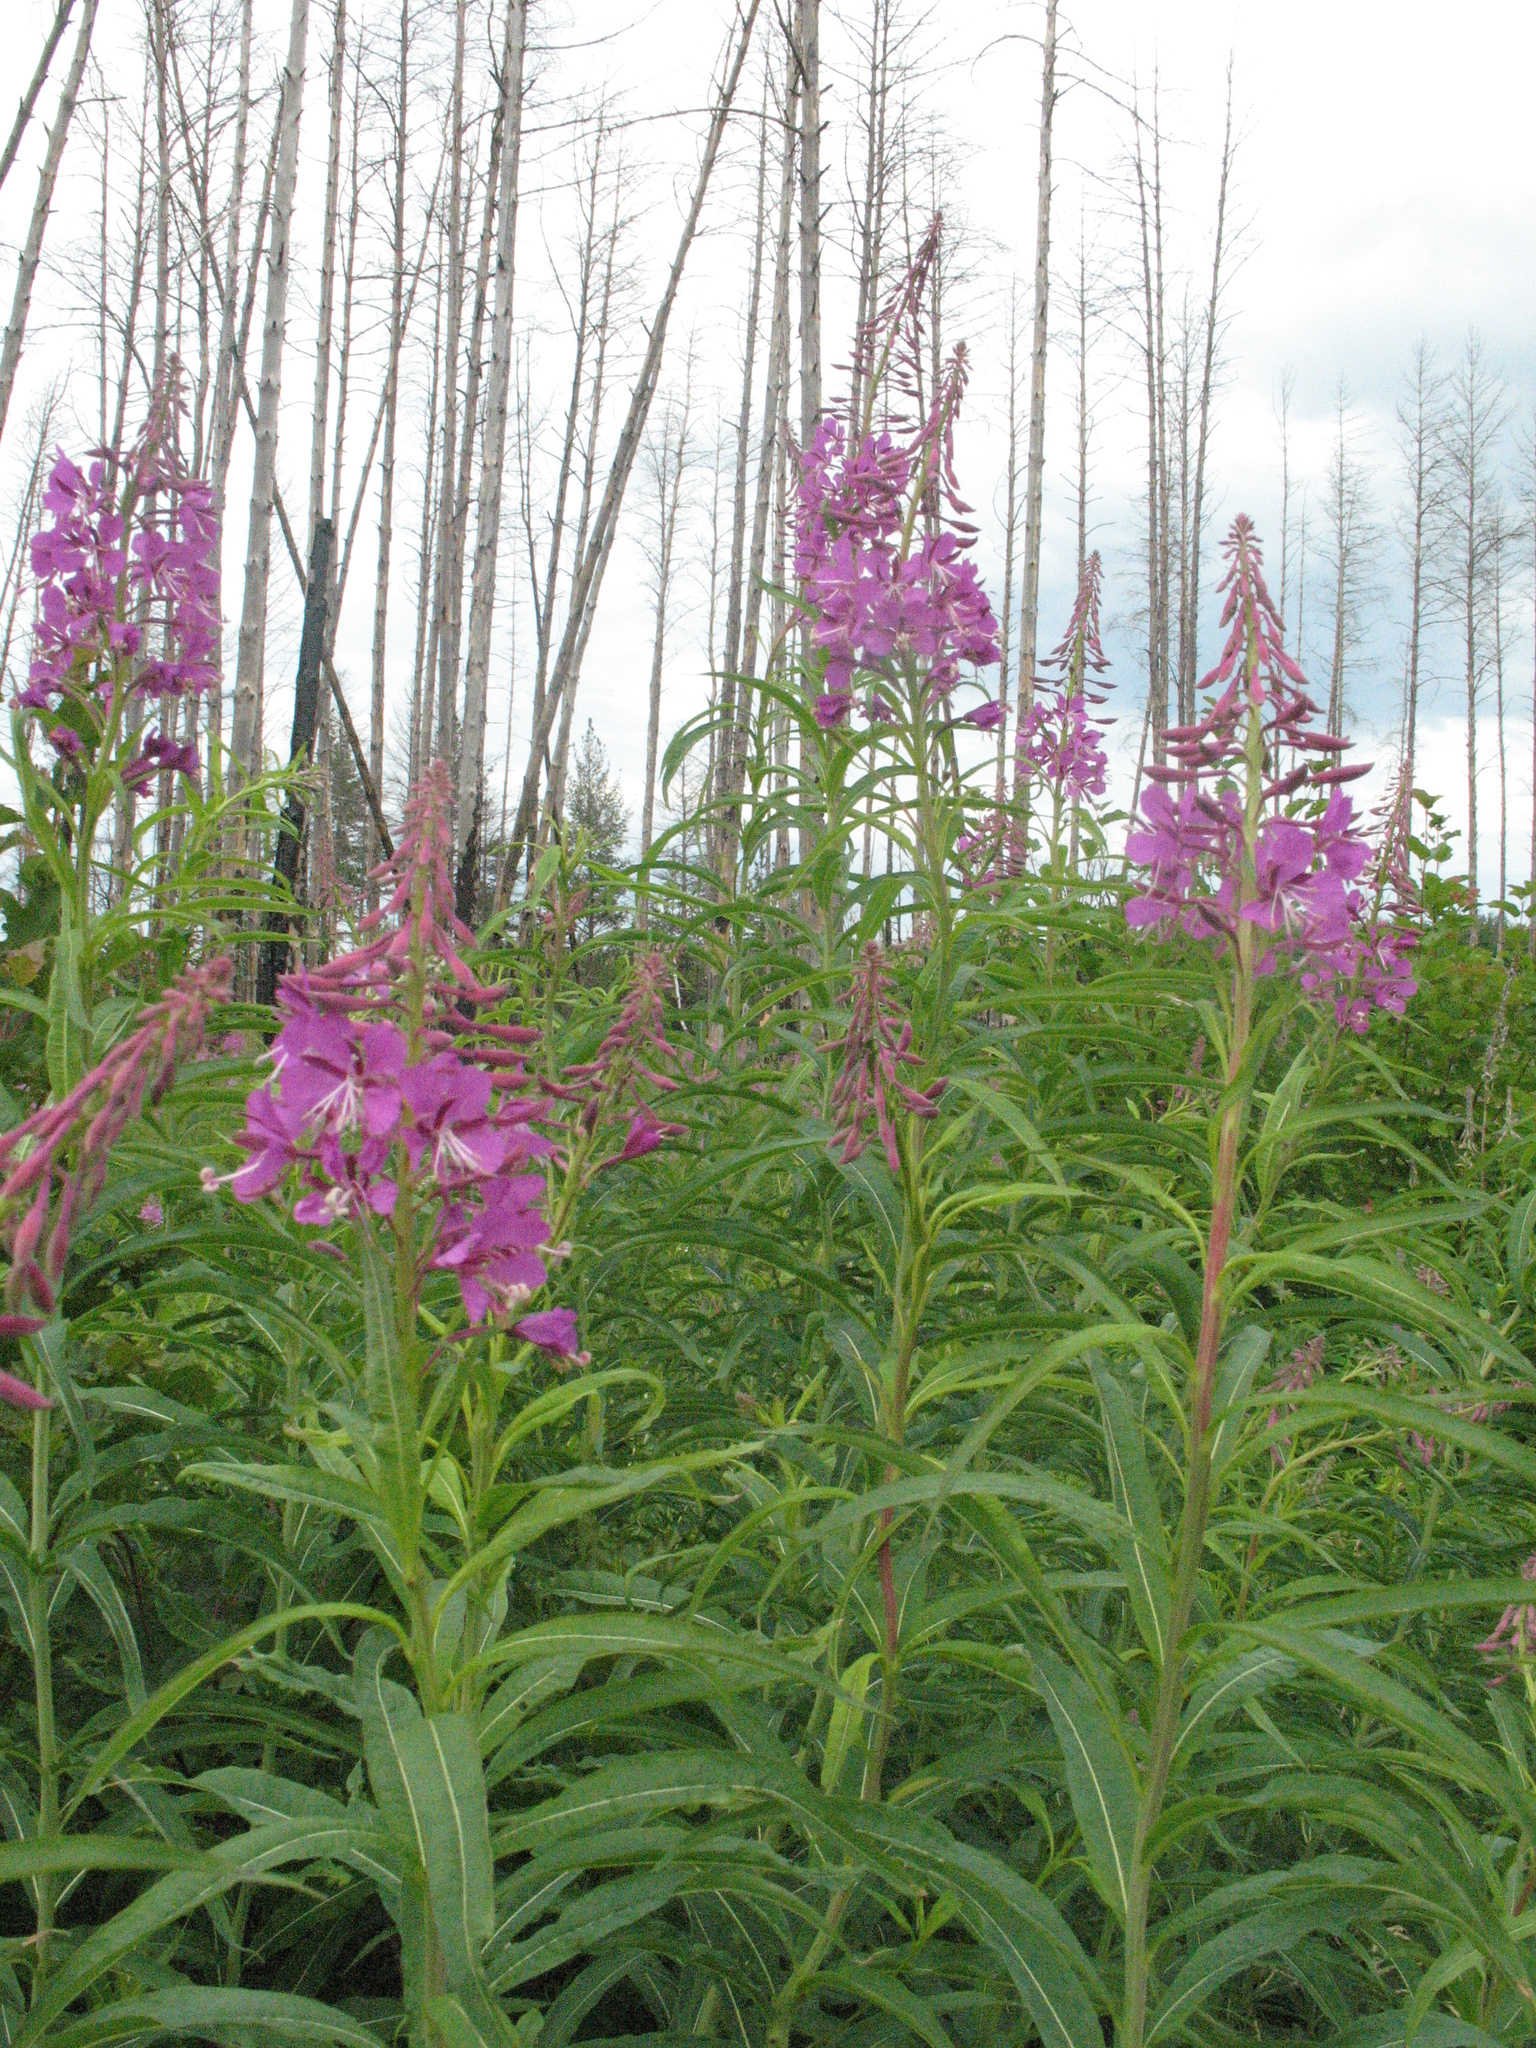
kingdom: Plantae
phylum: Tracheophyta
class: Magnoliopsida
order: Myrtales
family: Onagraceae
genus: Chamaenerion
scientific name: Chamaenerion angustifolium
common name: Fireweed
